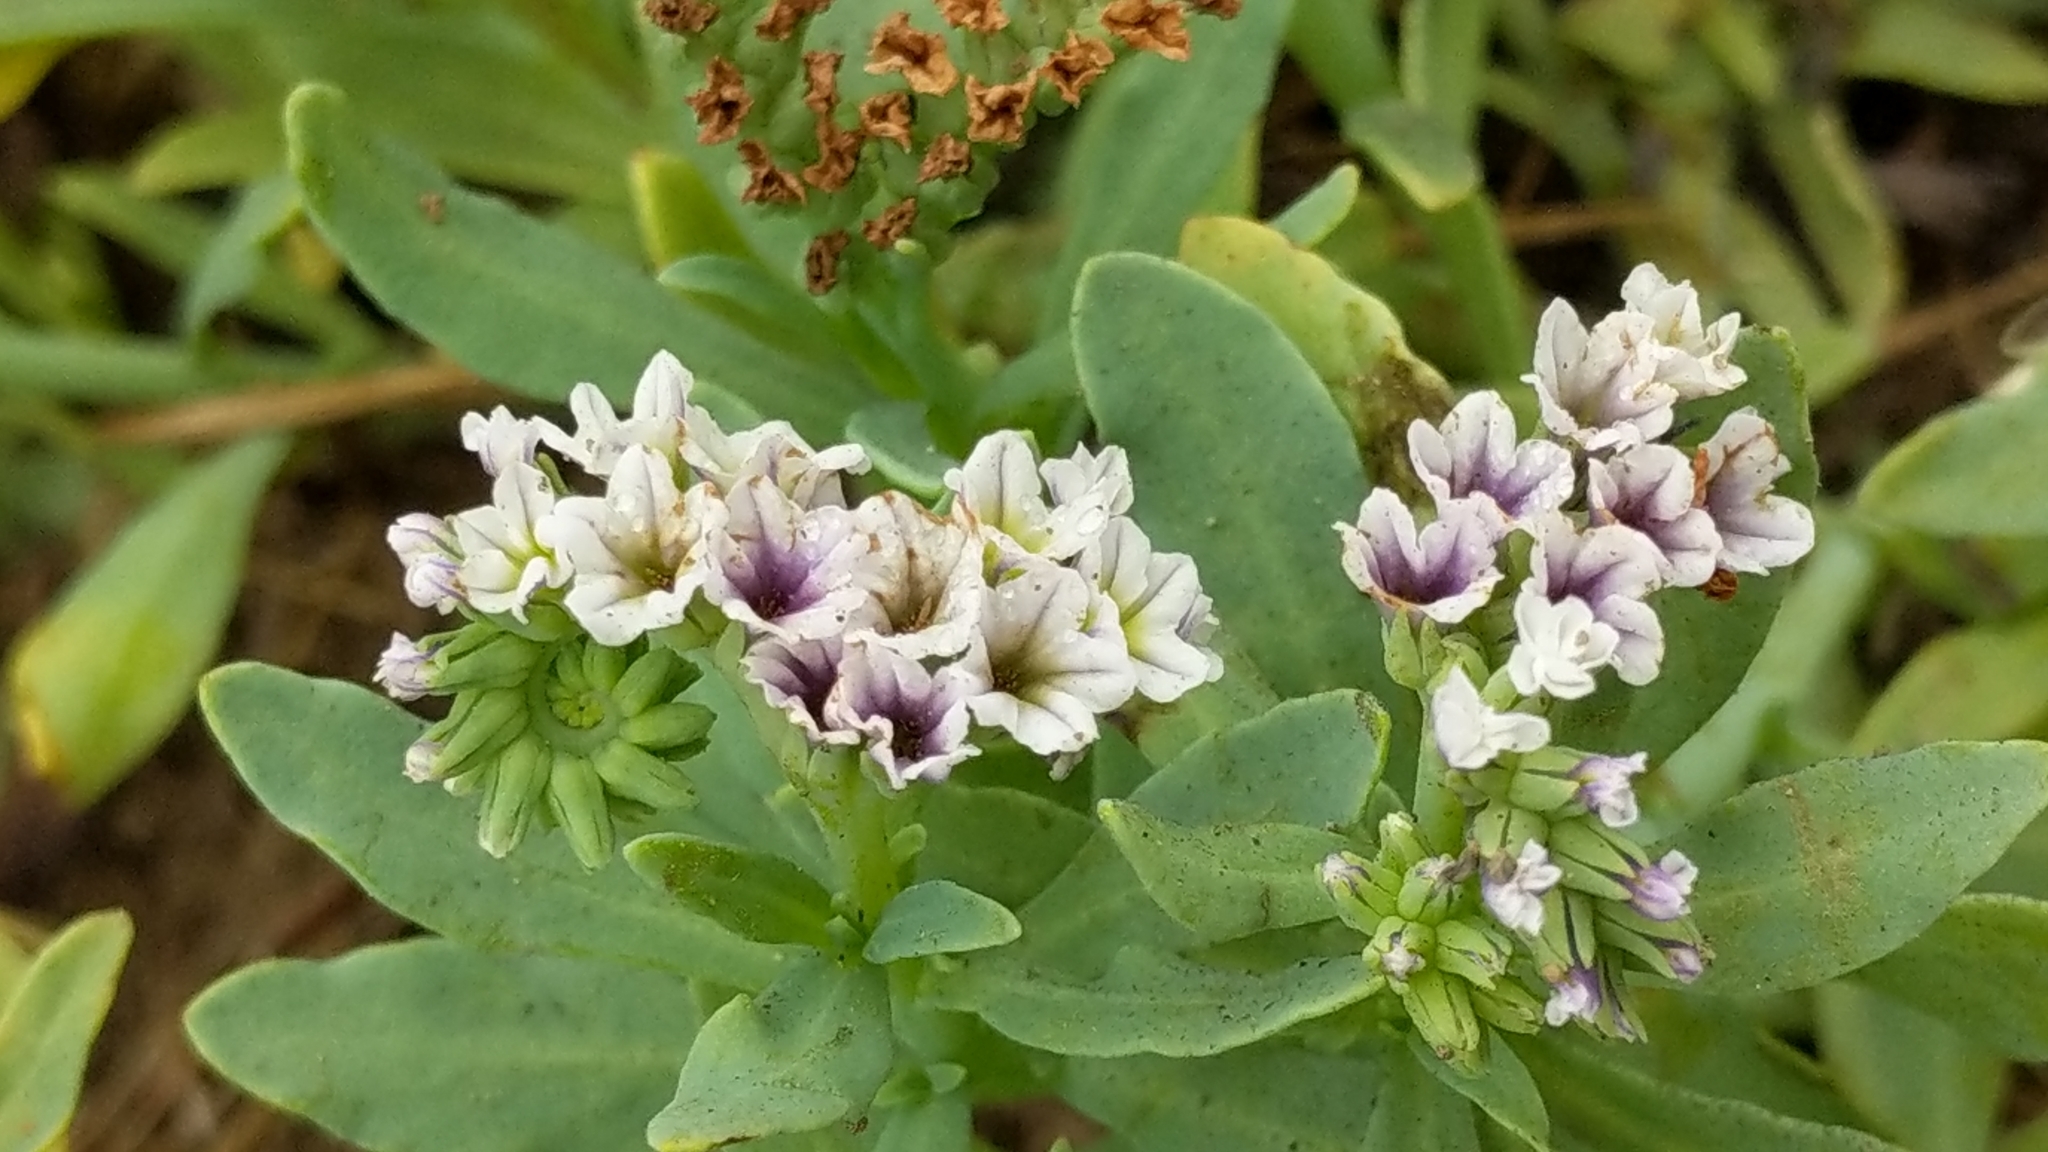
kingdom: Plantae
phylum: Tracheophyta
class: Magnoliopsida
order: Boraginales
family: Heliotropiaceae
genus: Heliotropium
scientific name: Heliotropium curassavicum
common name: Seaside heliotrope
